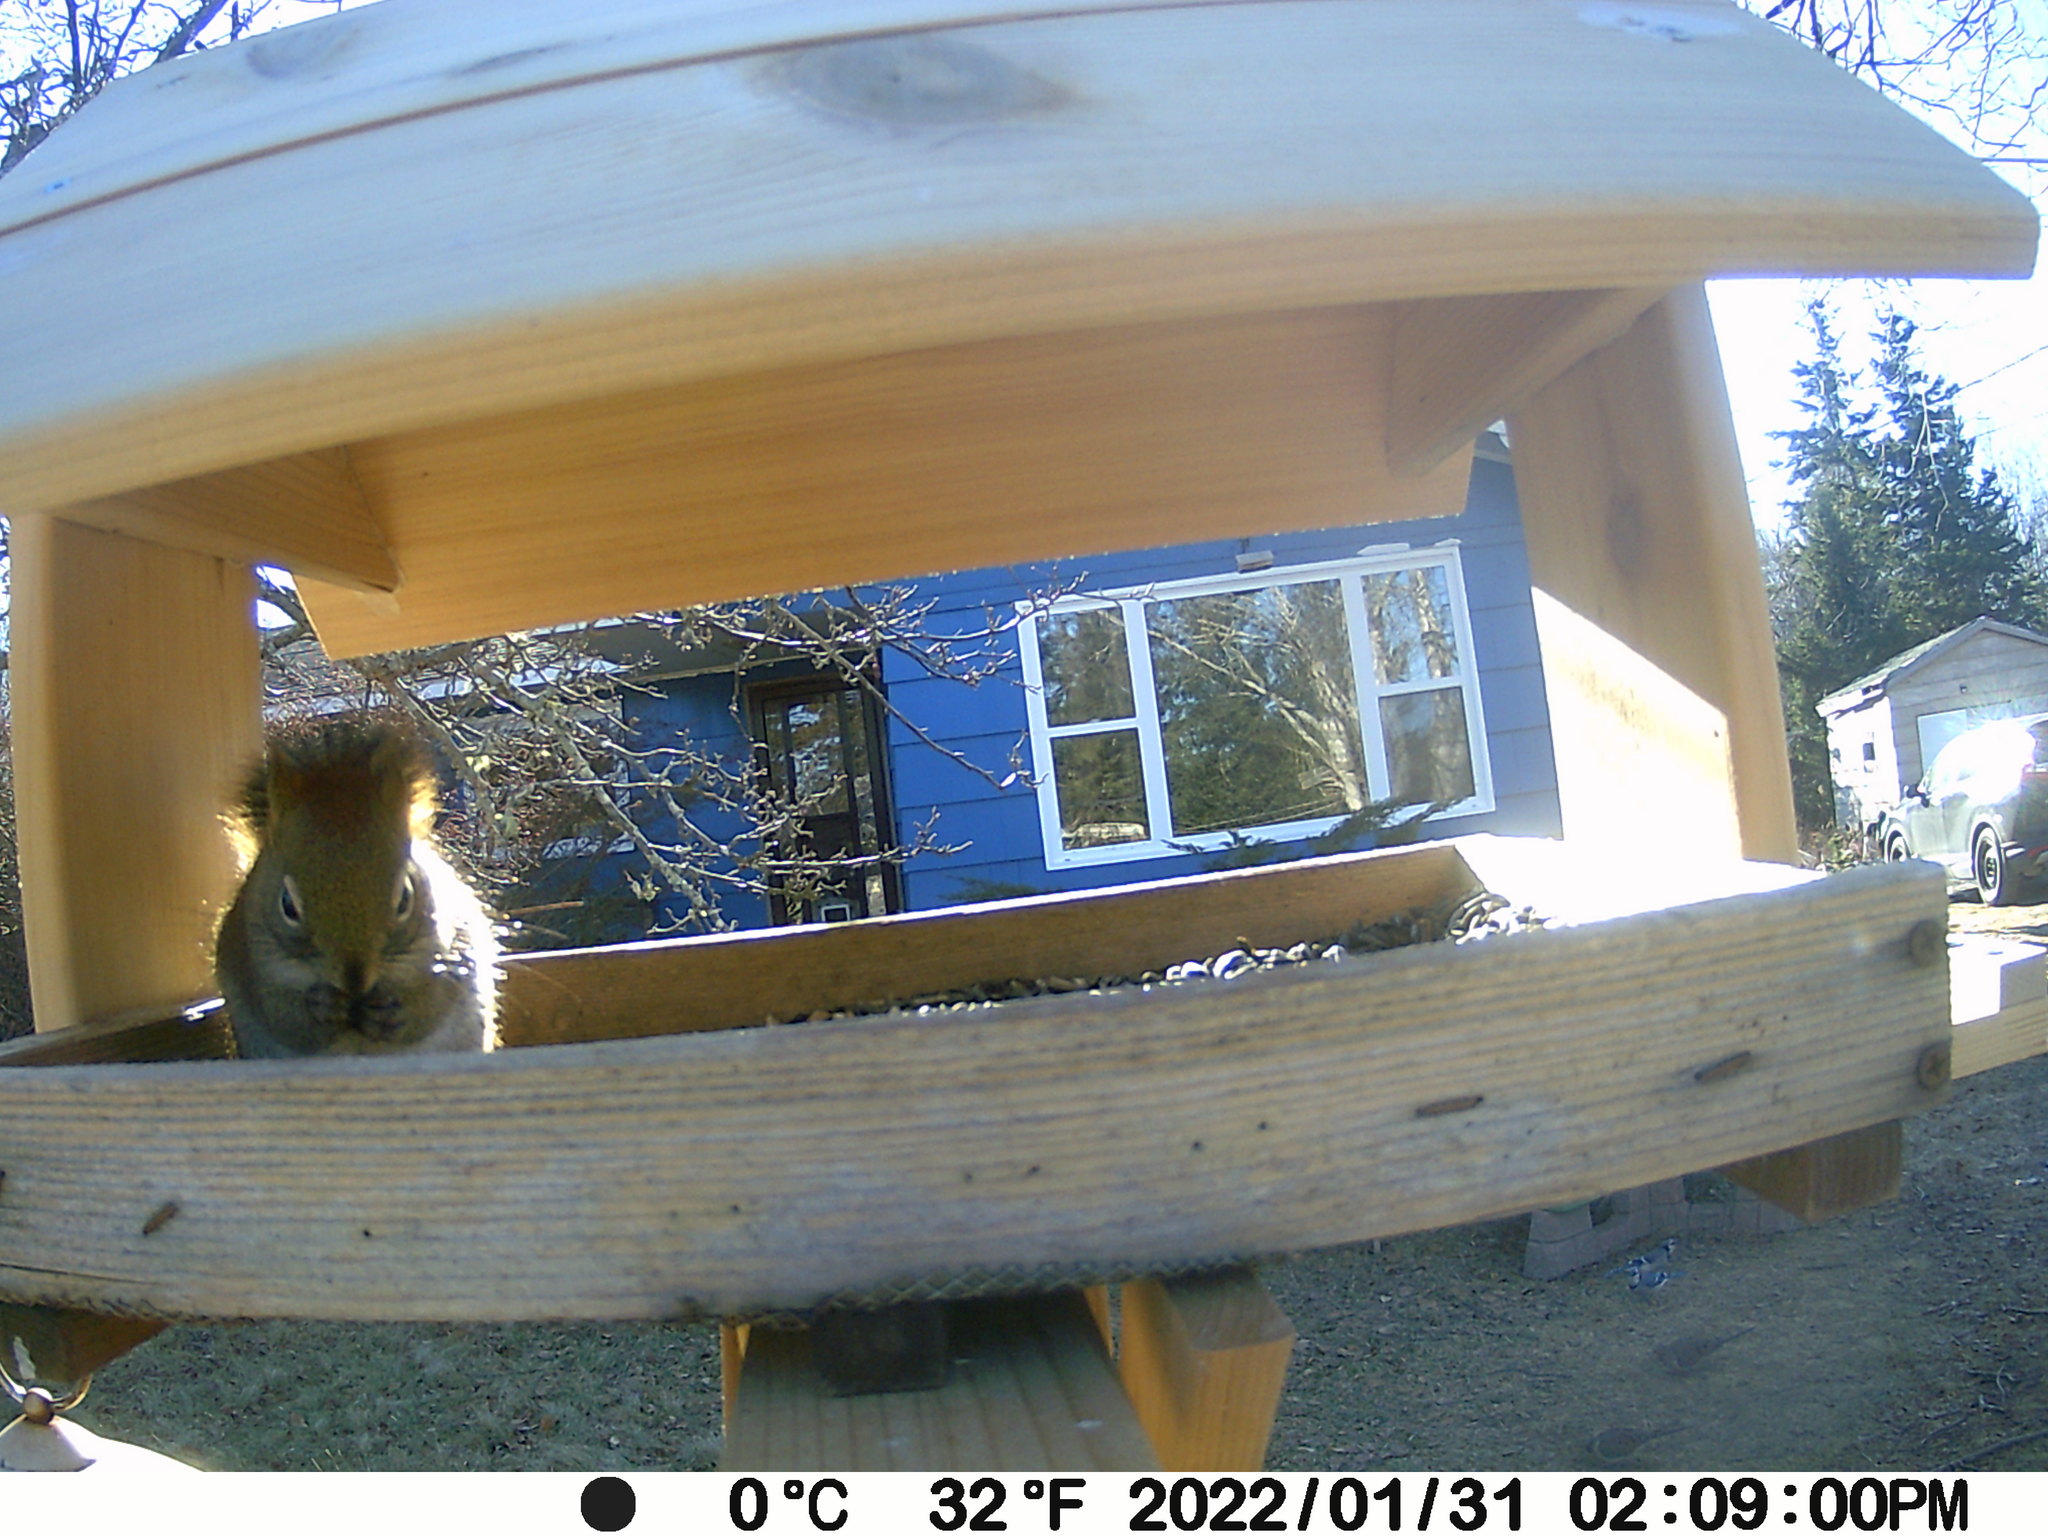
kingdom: Animalia
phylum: Chordata
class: Aves
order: Columbiformes
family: Columbidae
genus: Zenaida
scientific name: Zenaida macroura
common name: Mourning dove
